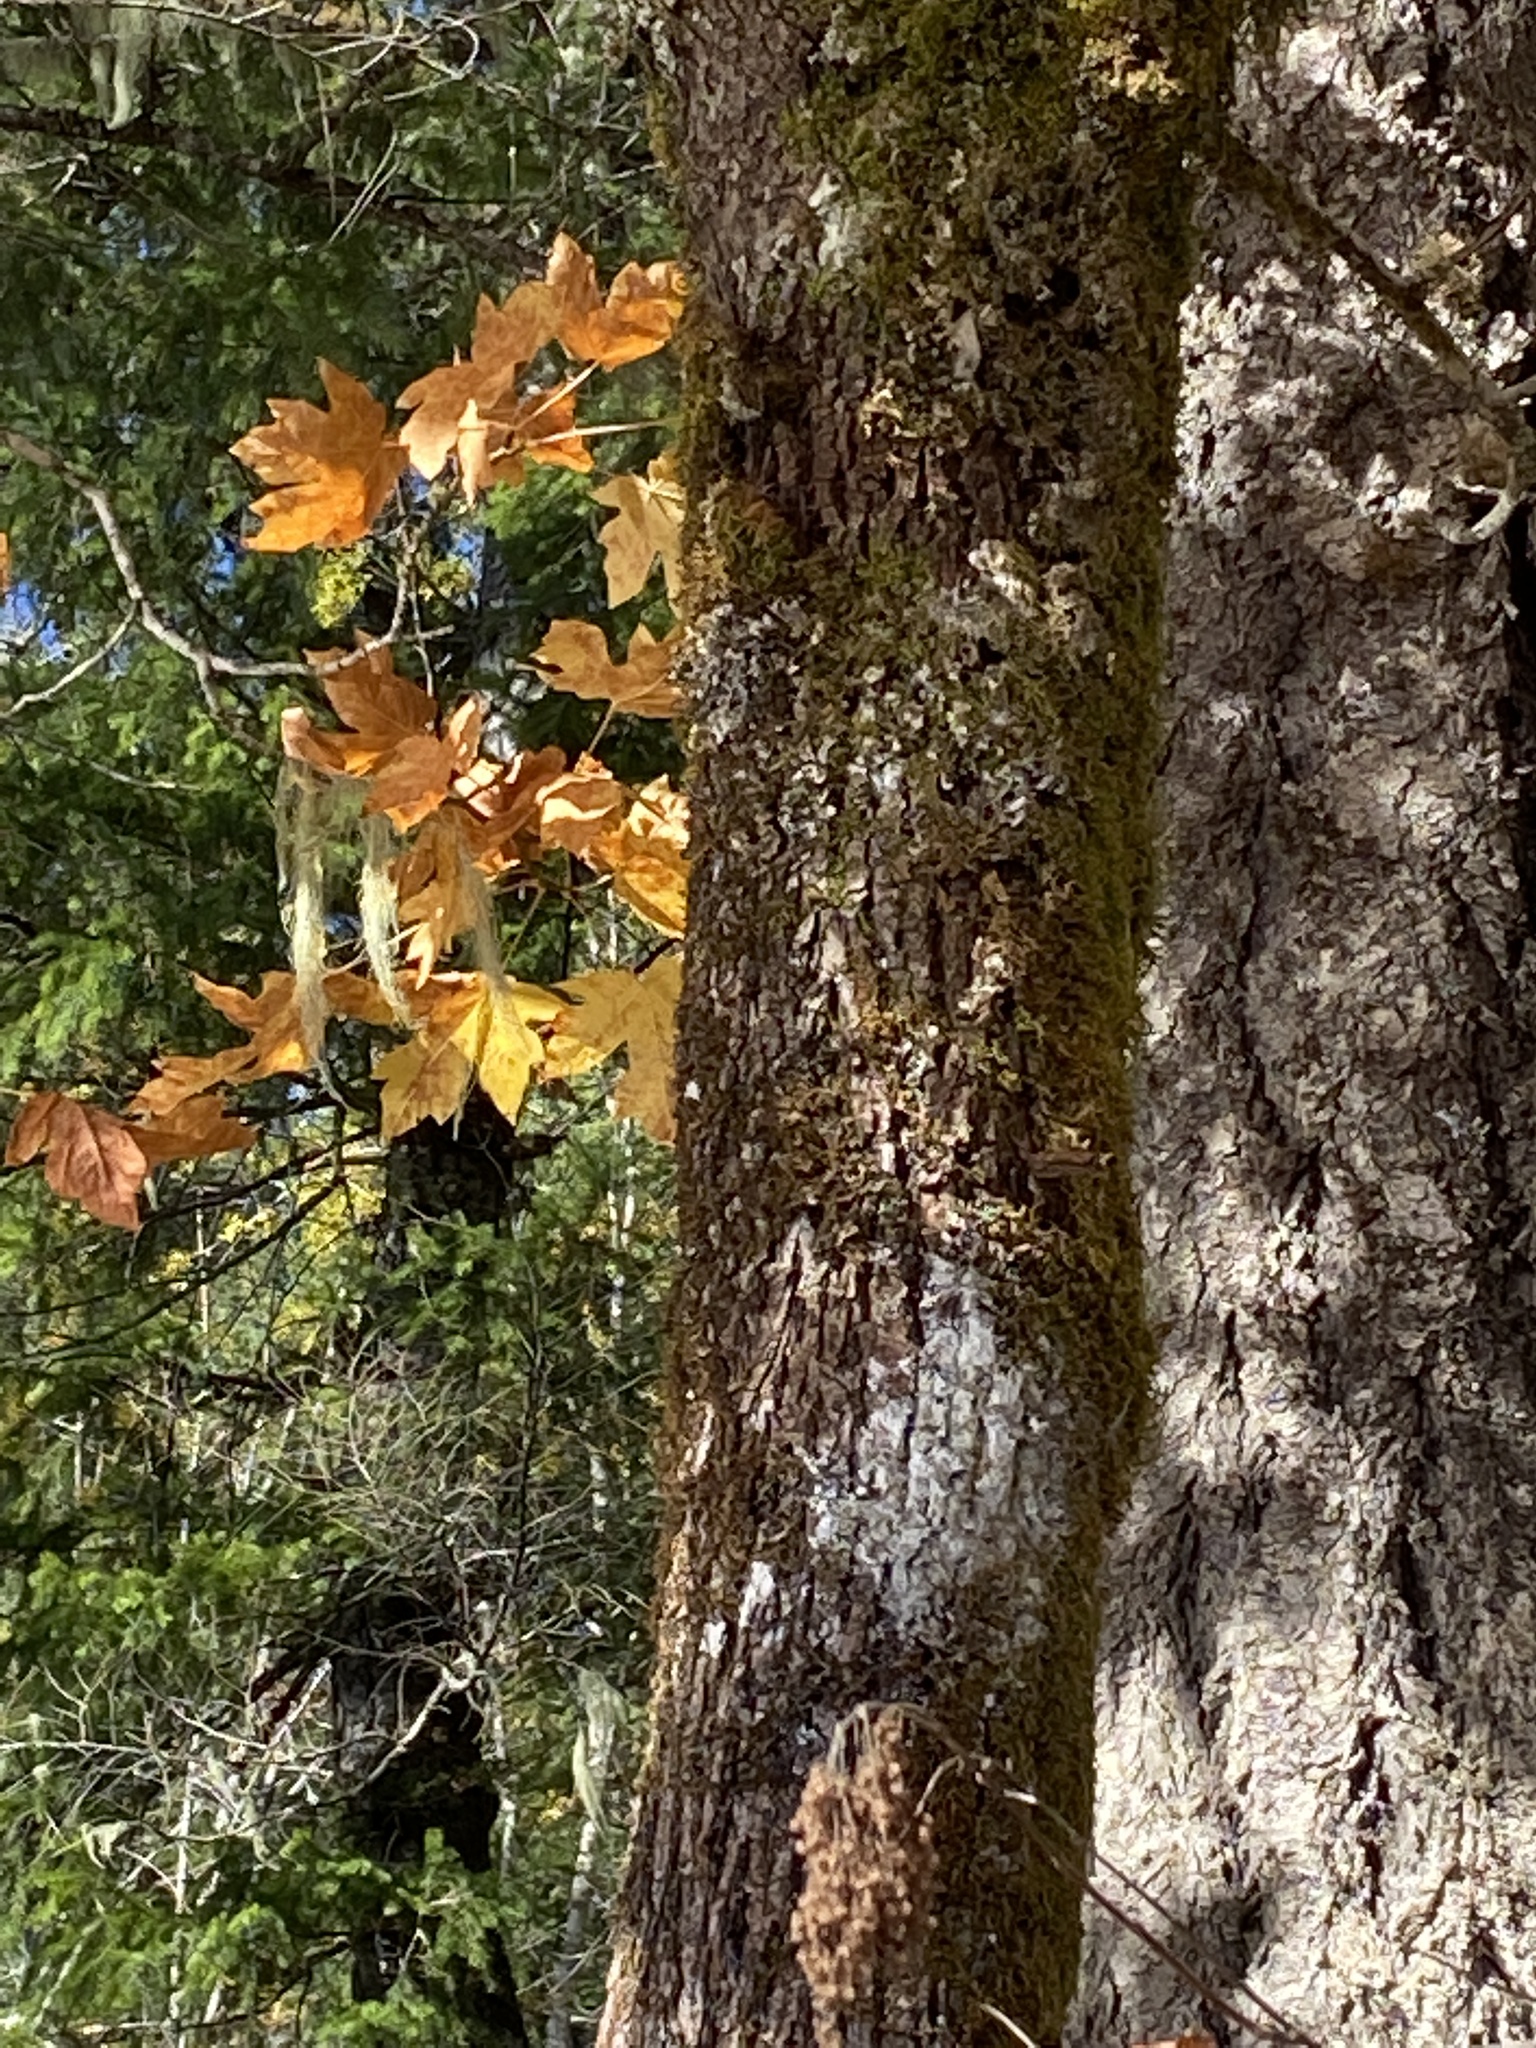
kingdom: Plantae
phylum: Tracheophyta
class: Magnoliopsida
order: Sapindales
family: Sapindaceae
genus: Acer
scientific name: Acer macrophyllum
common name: Oregon maple
